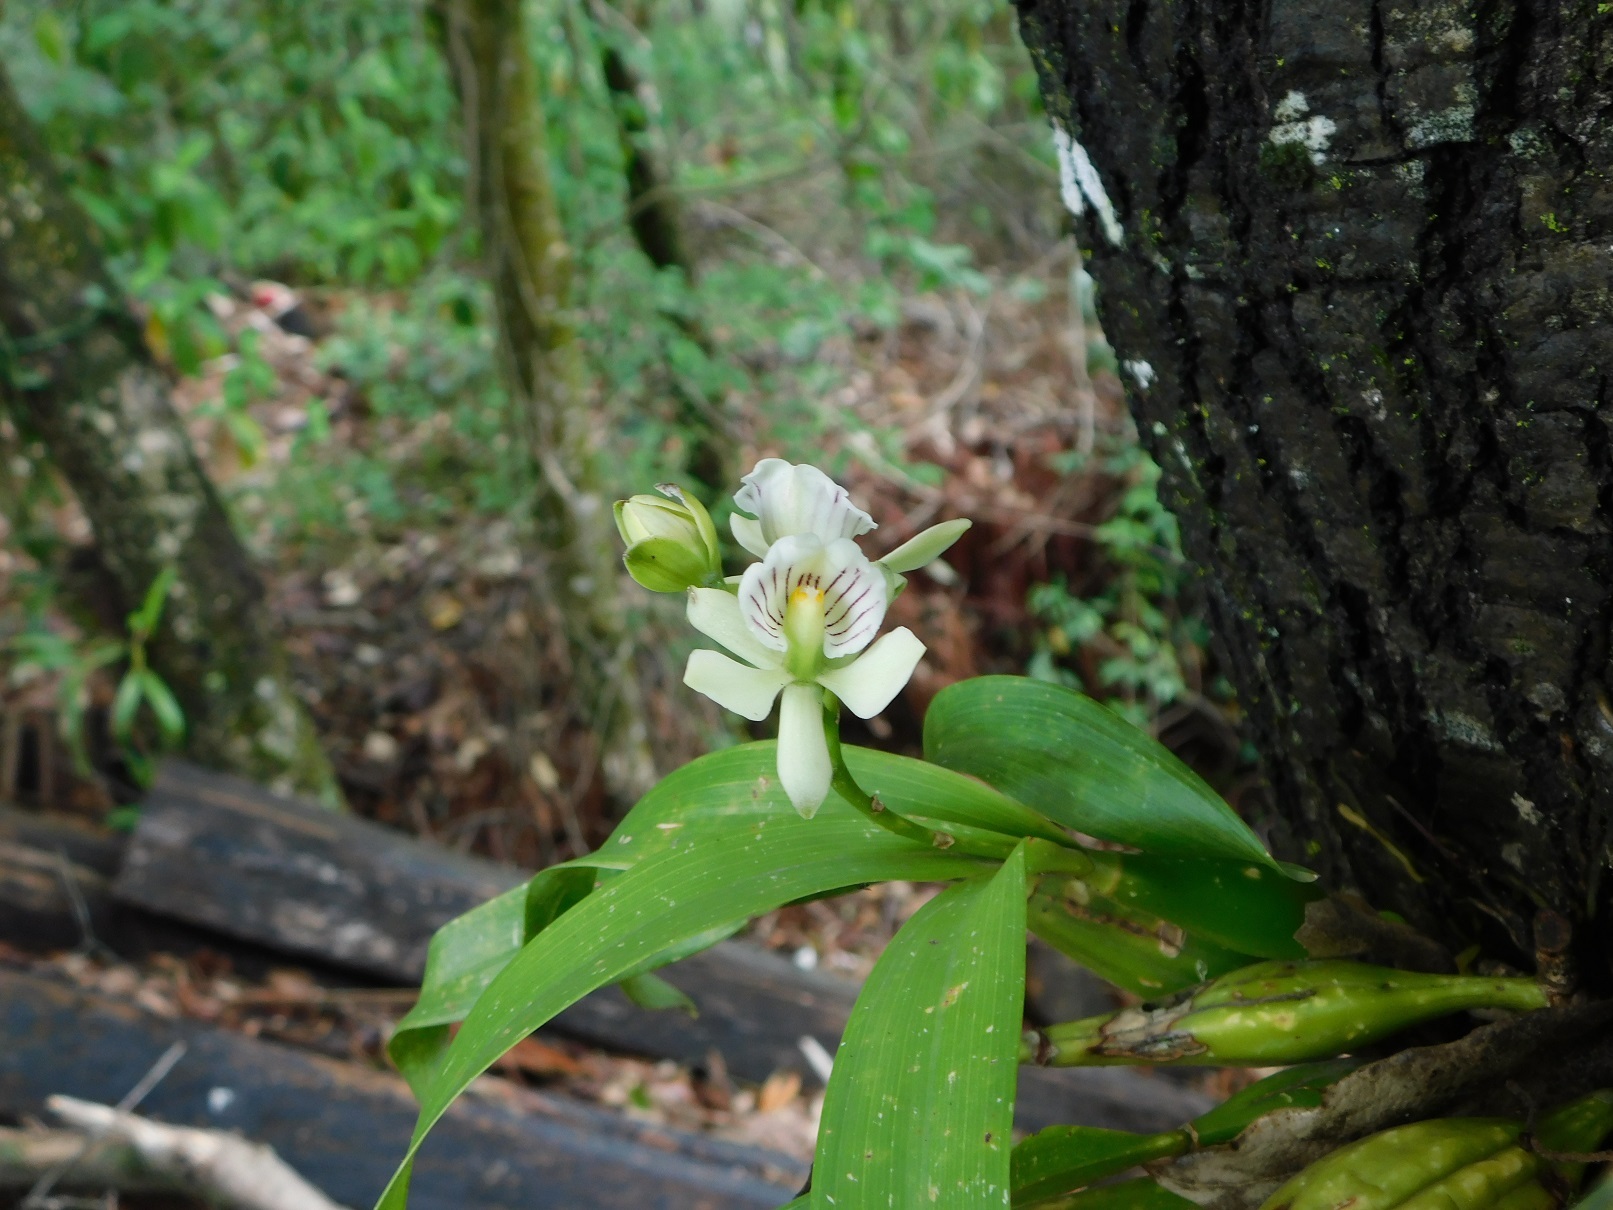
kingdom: Plantae
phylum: Tracheophyta
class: Liliopsida
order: Asparagales
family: Orchidaceae
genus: Prosthechea
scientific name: Prosthechea radiata
